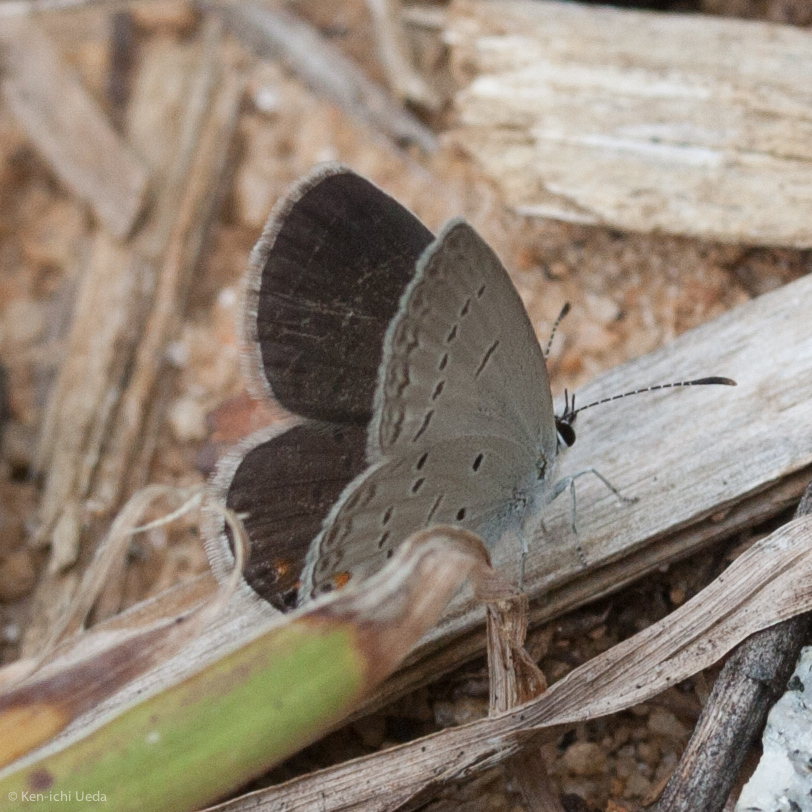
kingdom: Animalia
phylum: Arthropoda
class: Insecta
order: Lepidoptera
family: Lycaenidae
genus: Elkalyce
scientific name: Elkalyce comyntas
